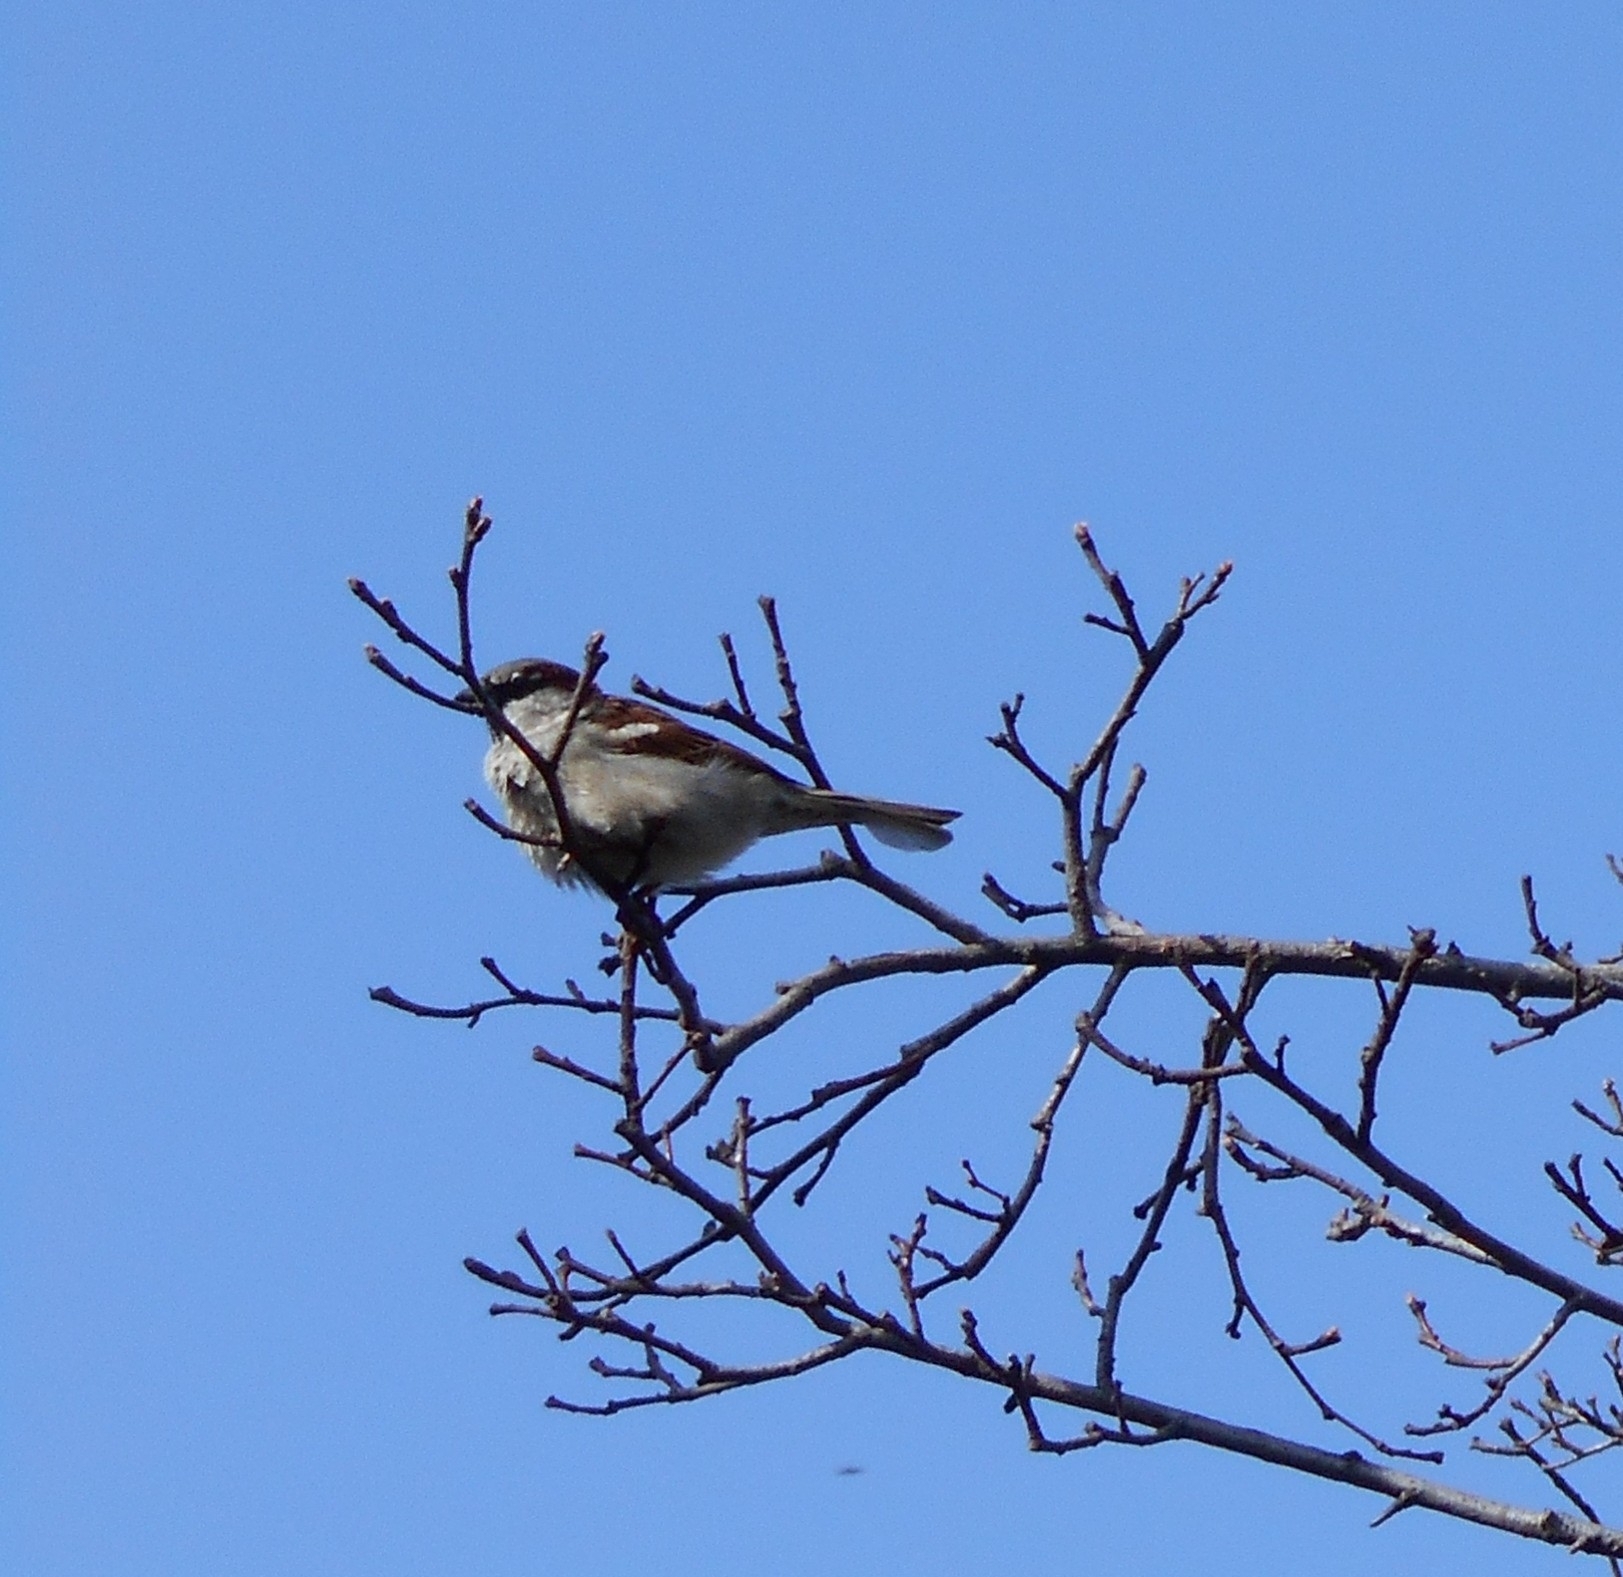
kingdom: Animalia
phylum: Chordata
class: Aves
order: Passeriformes
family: Passeridae
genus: Passer
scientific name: Passer domesticus
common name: House sparrow
